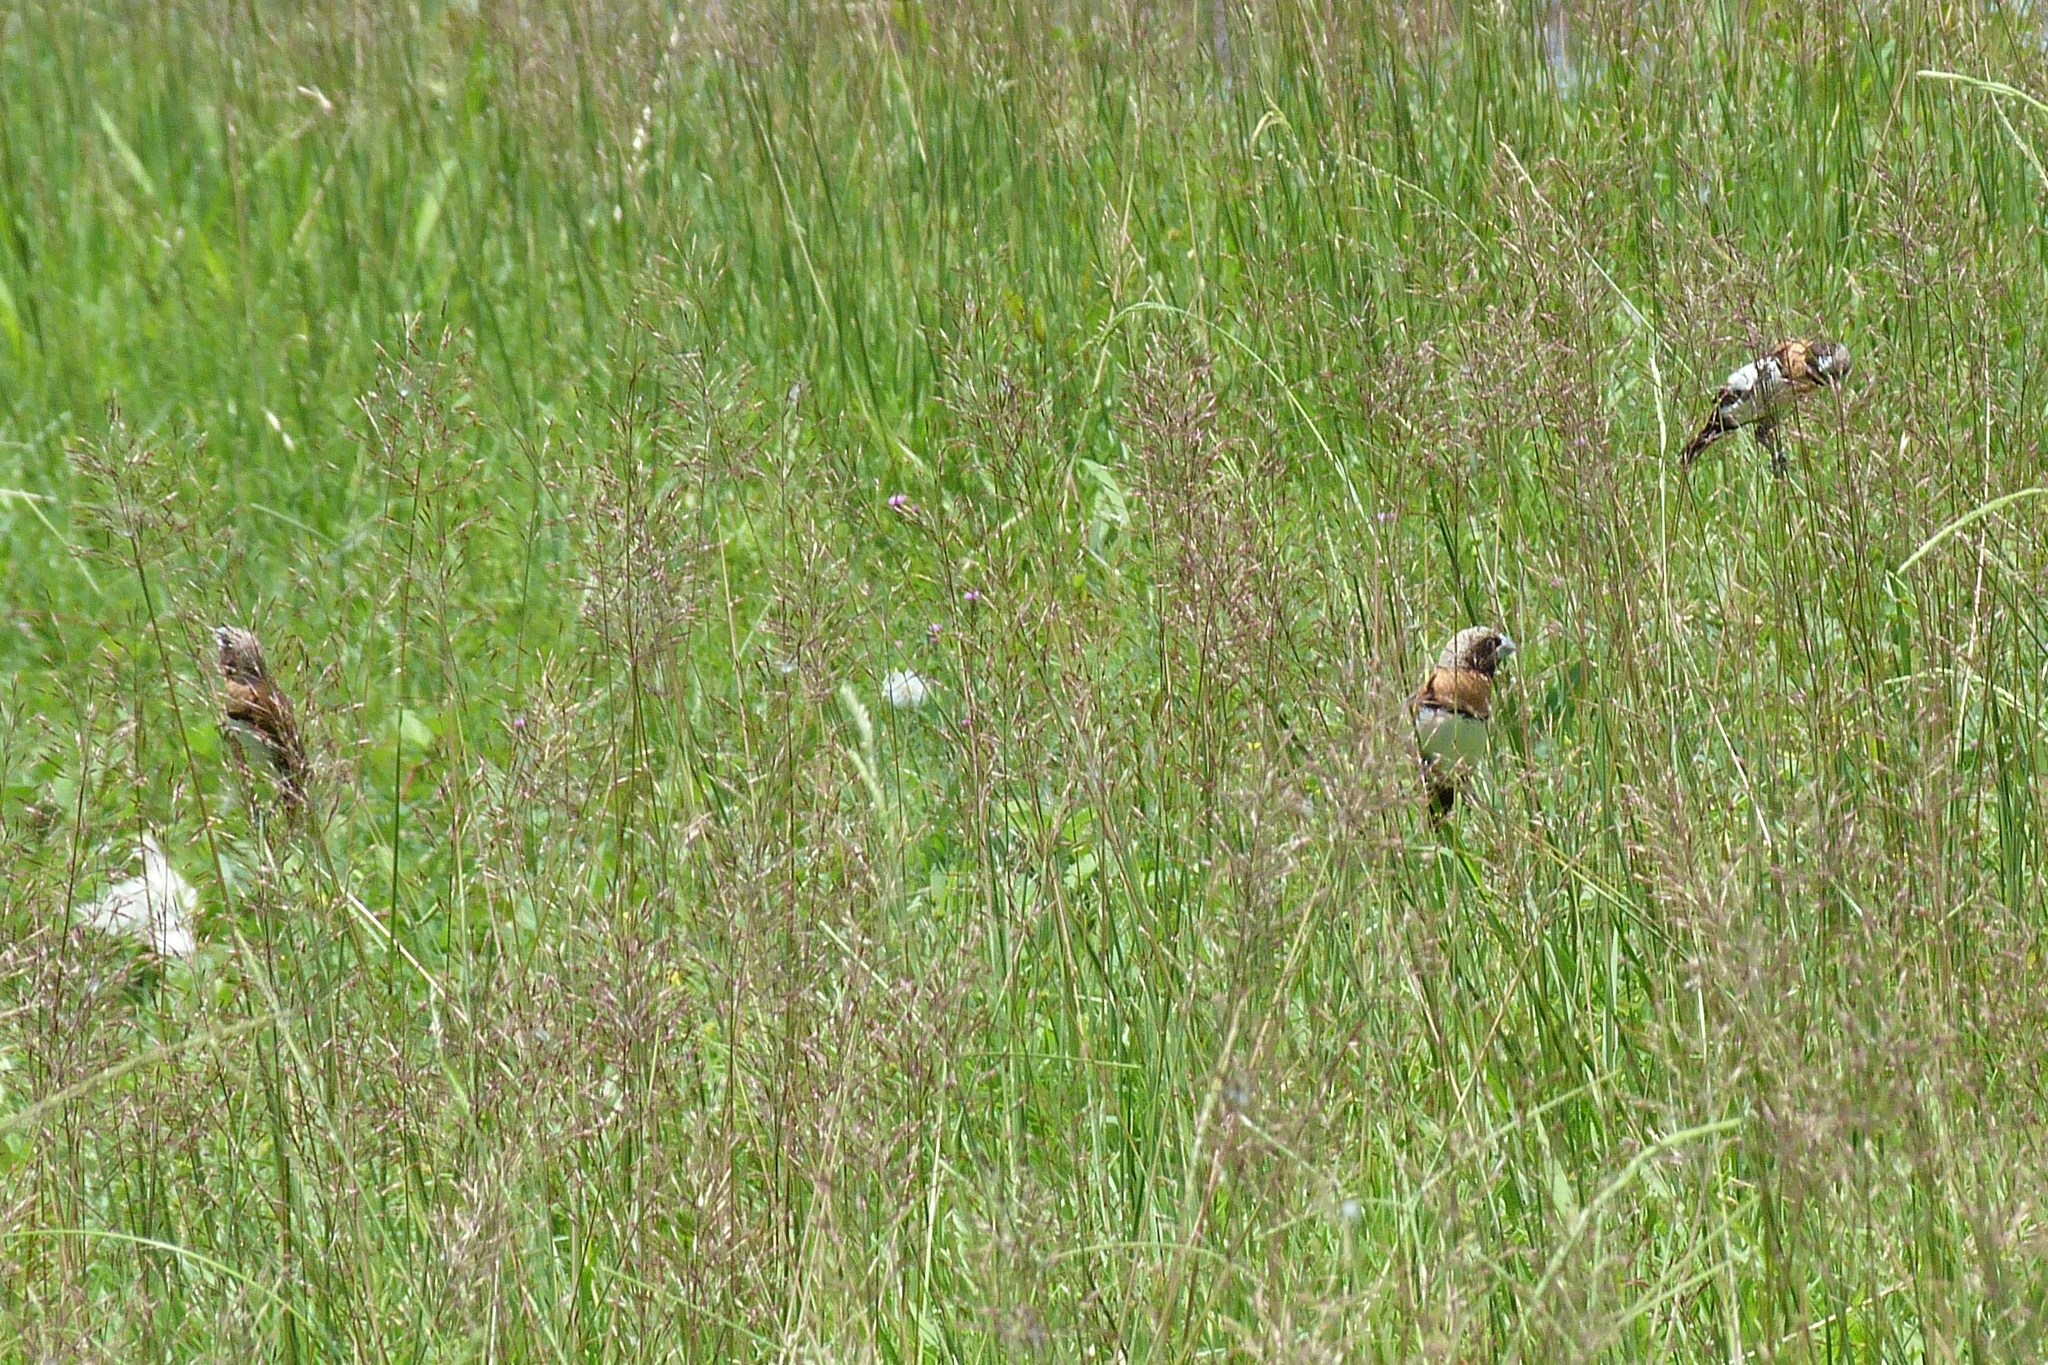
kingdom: Animalia
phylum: Chordata
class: Aves
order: Passeriformes
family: Estrildidae
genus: Lonchura
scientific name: Lonchura castaneothorax
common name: Chestnut-breasted mannikin
